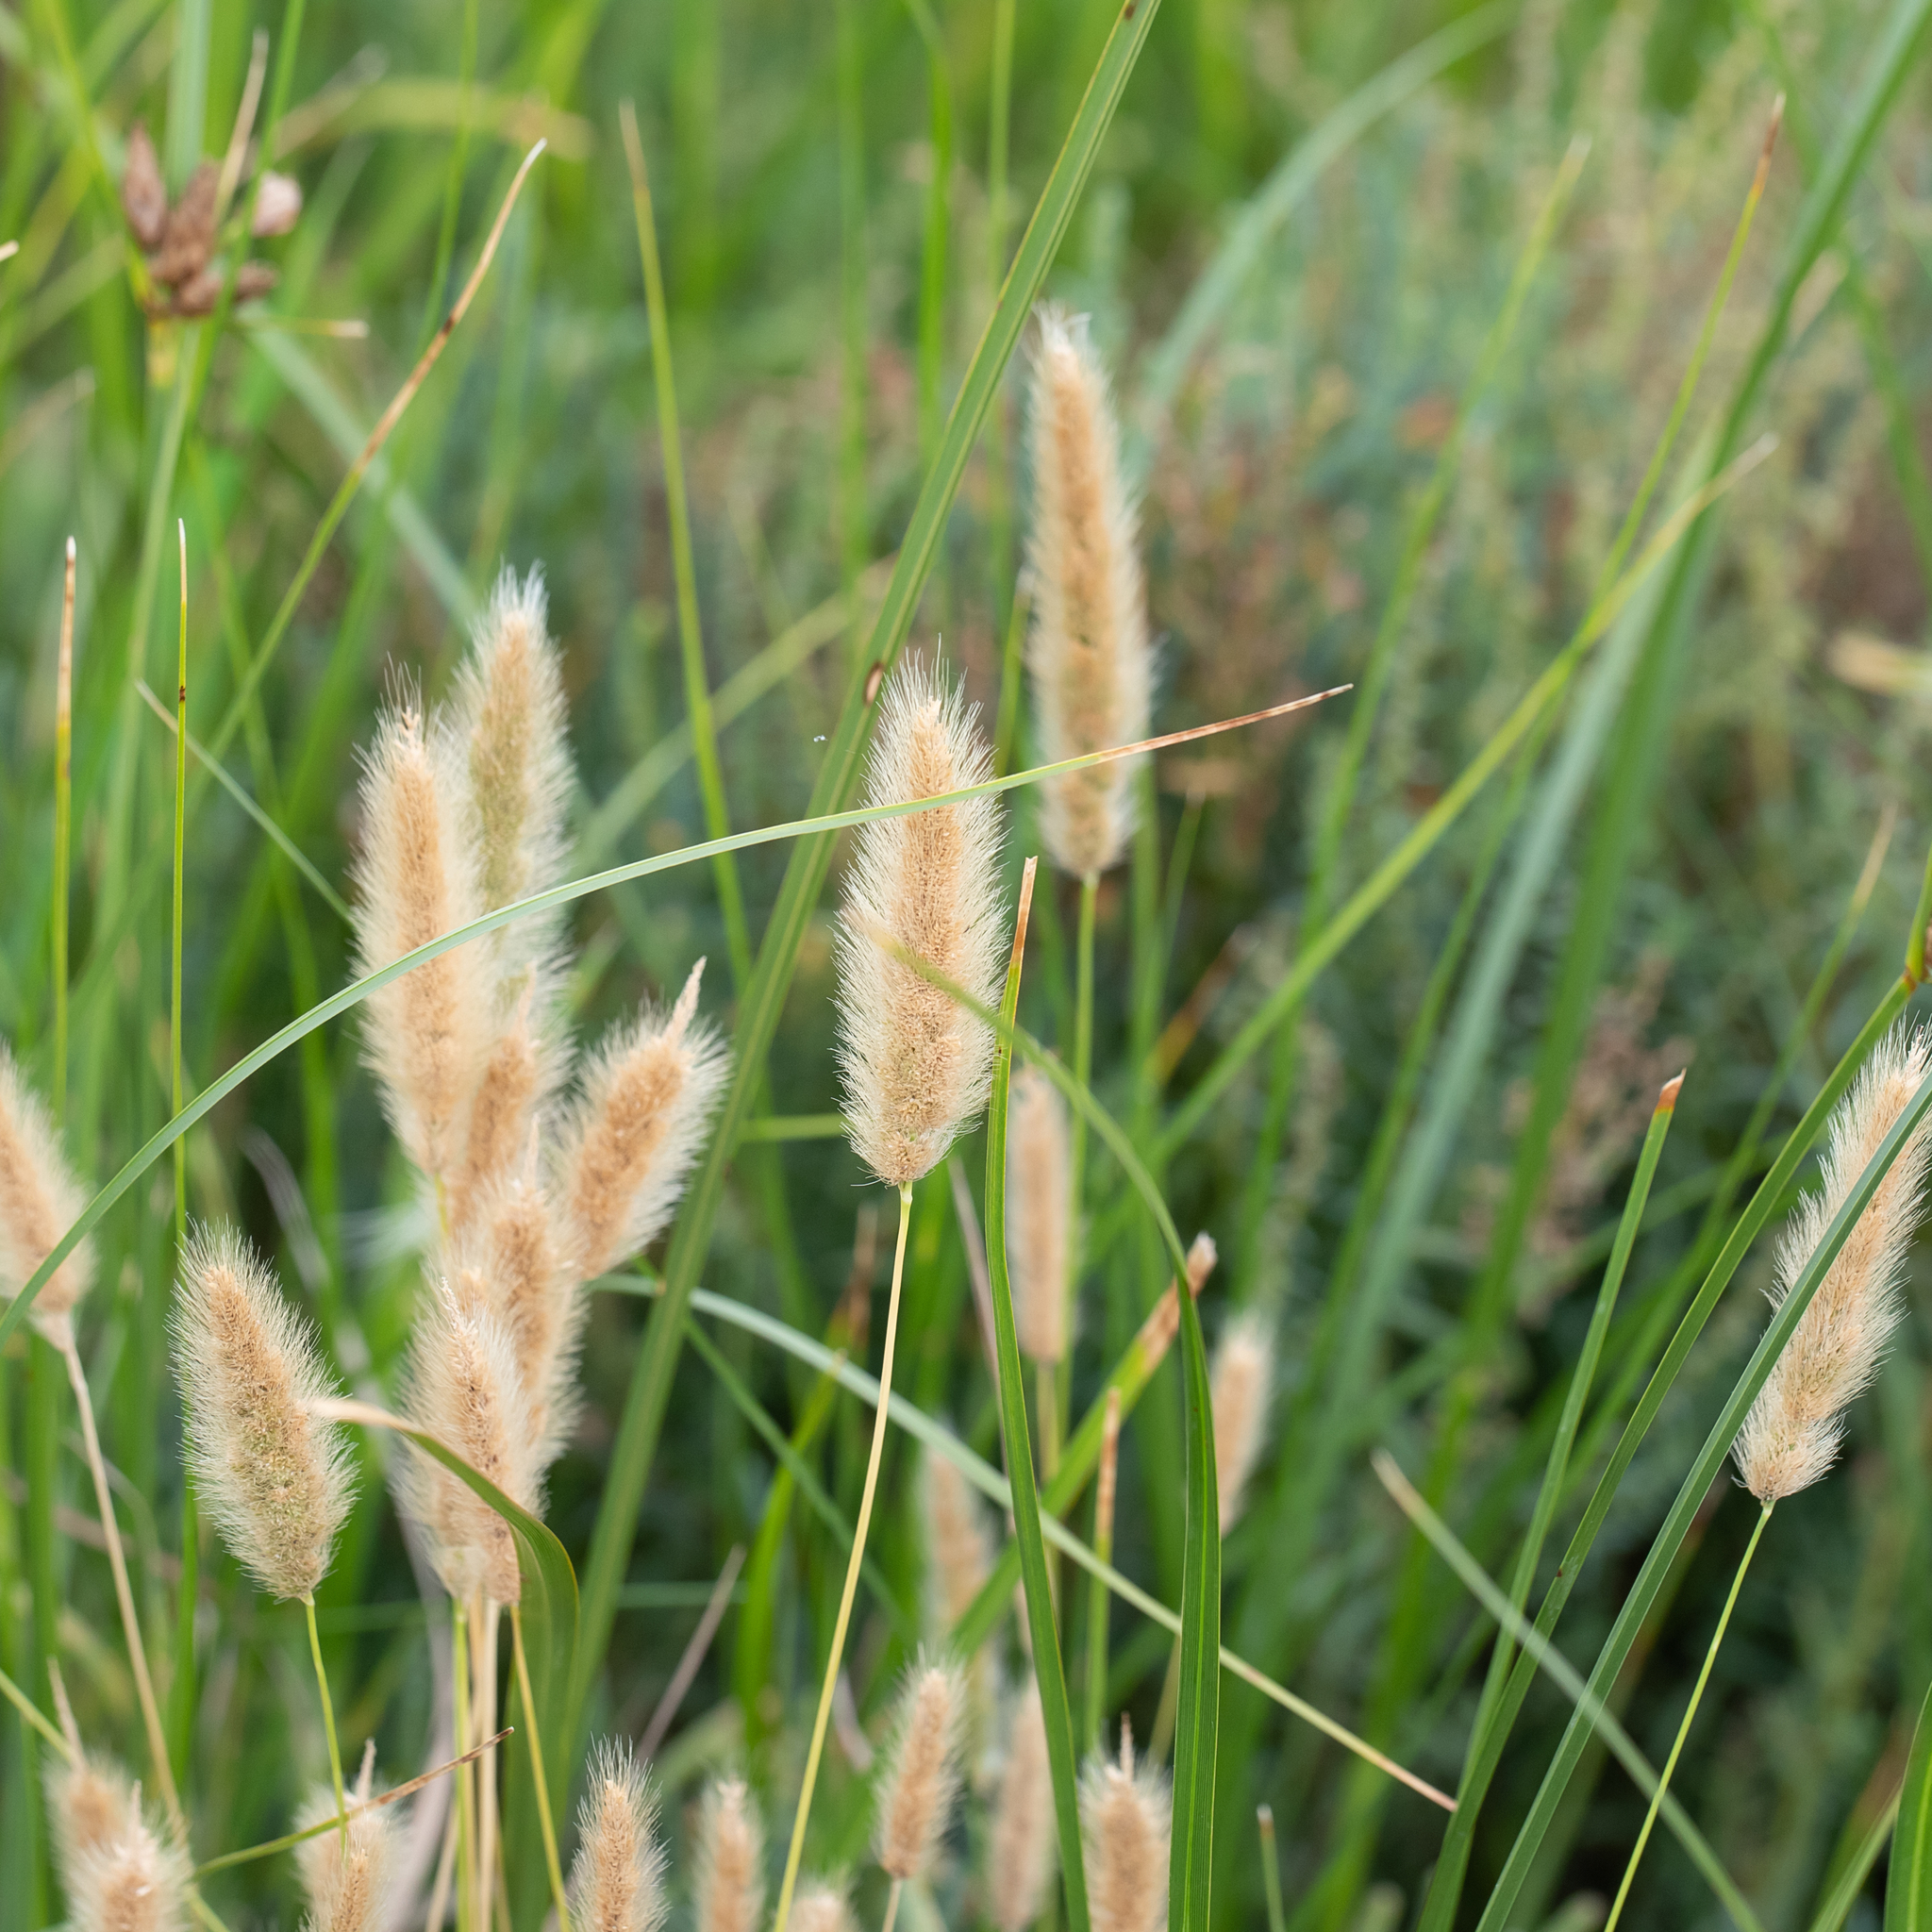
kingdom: Plantae
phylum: Tracheophyta
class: Liliopsida
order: Poales
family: Poaceae
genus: Polypogon
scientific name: Polypogon monspeliensis
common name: Annual rabbitsfoot grass
